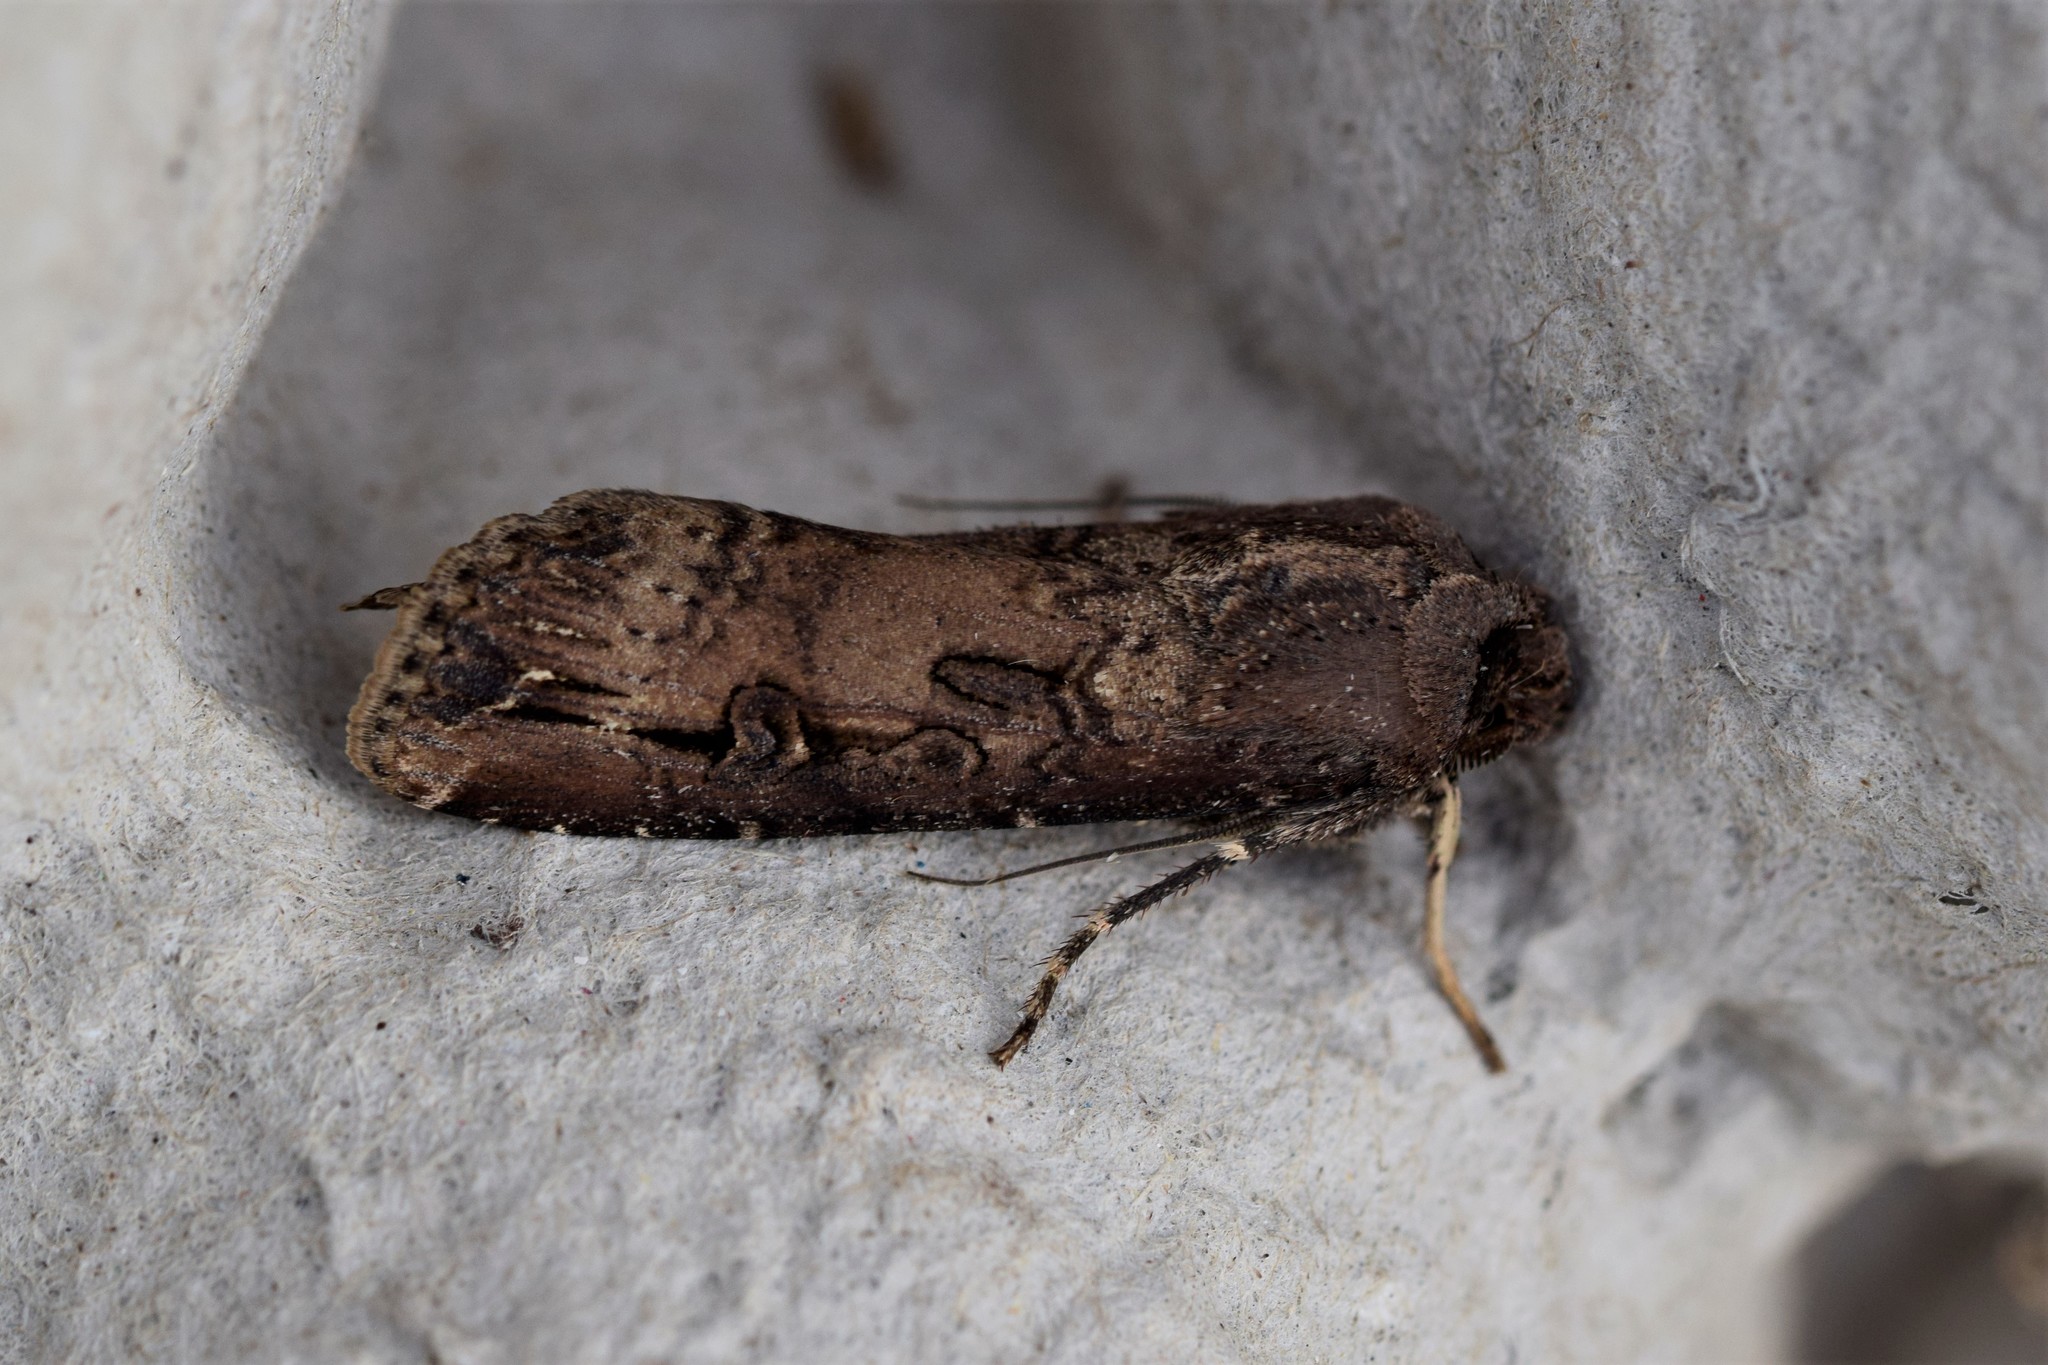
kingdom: Animalia
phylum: Arthropoda
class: Insecta
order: Lepidoptera
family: Noctuidae
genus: Agrotis
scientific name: Agrotis ipsilon
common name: Dark sword-grass
